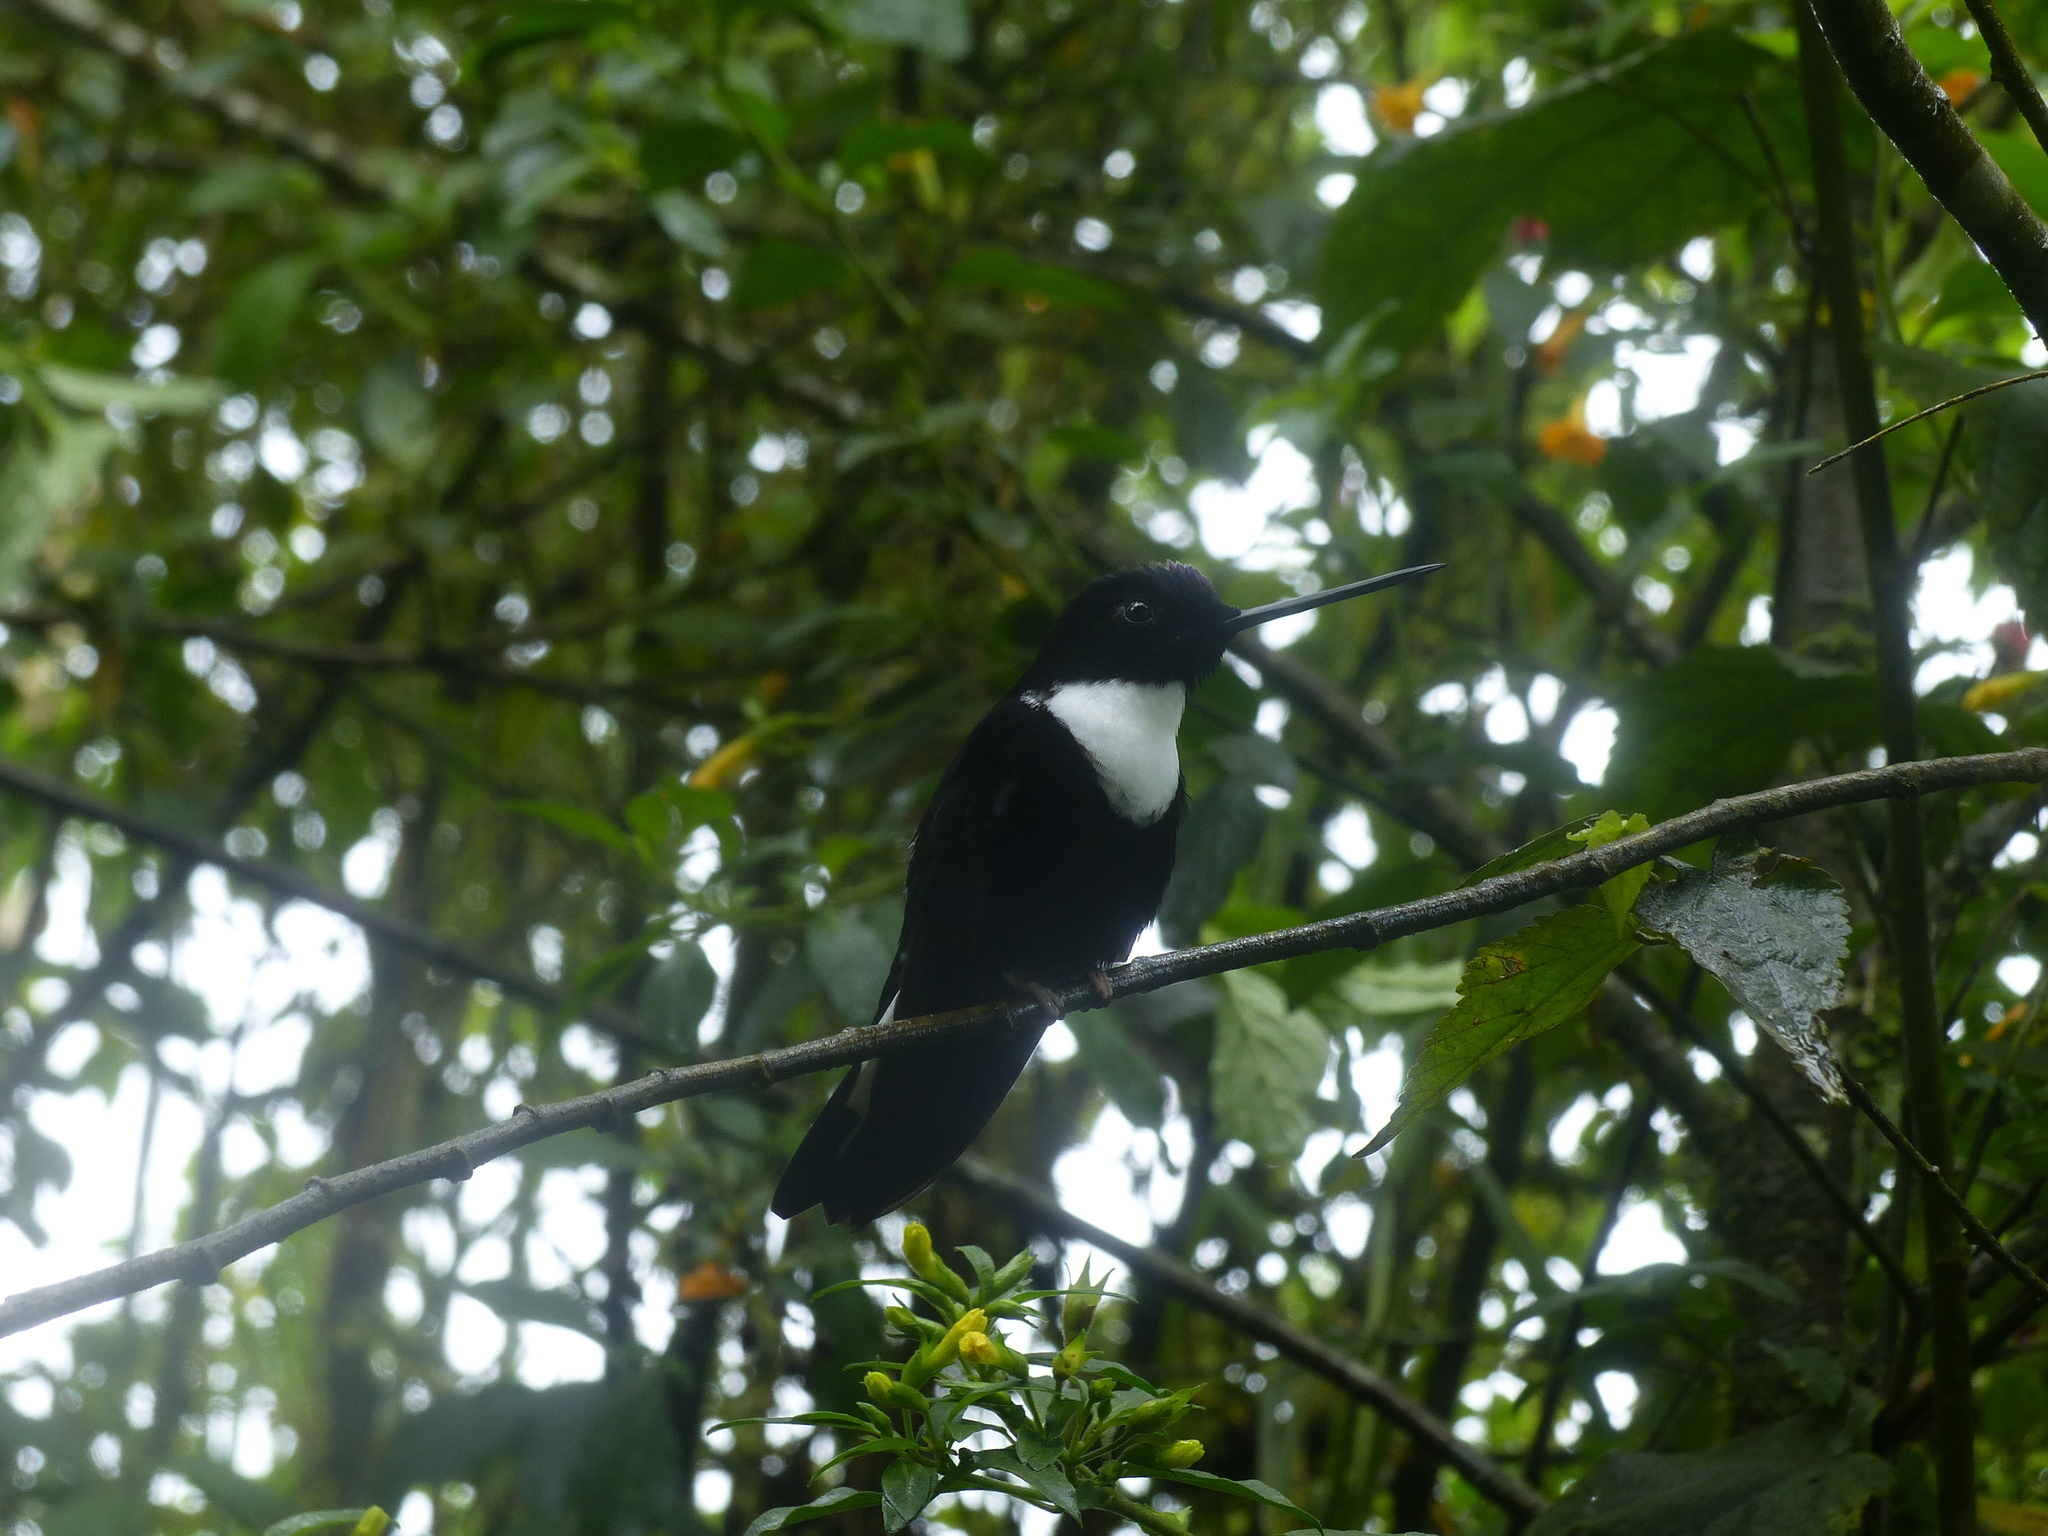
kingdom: Animalia
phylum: Chordata
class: Aves
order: Apodiformes
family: Trochilidae
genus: Coeligena
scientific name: Coeligena torquata
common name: Collared inca
